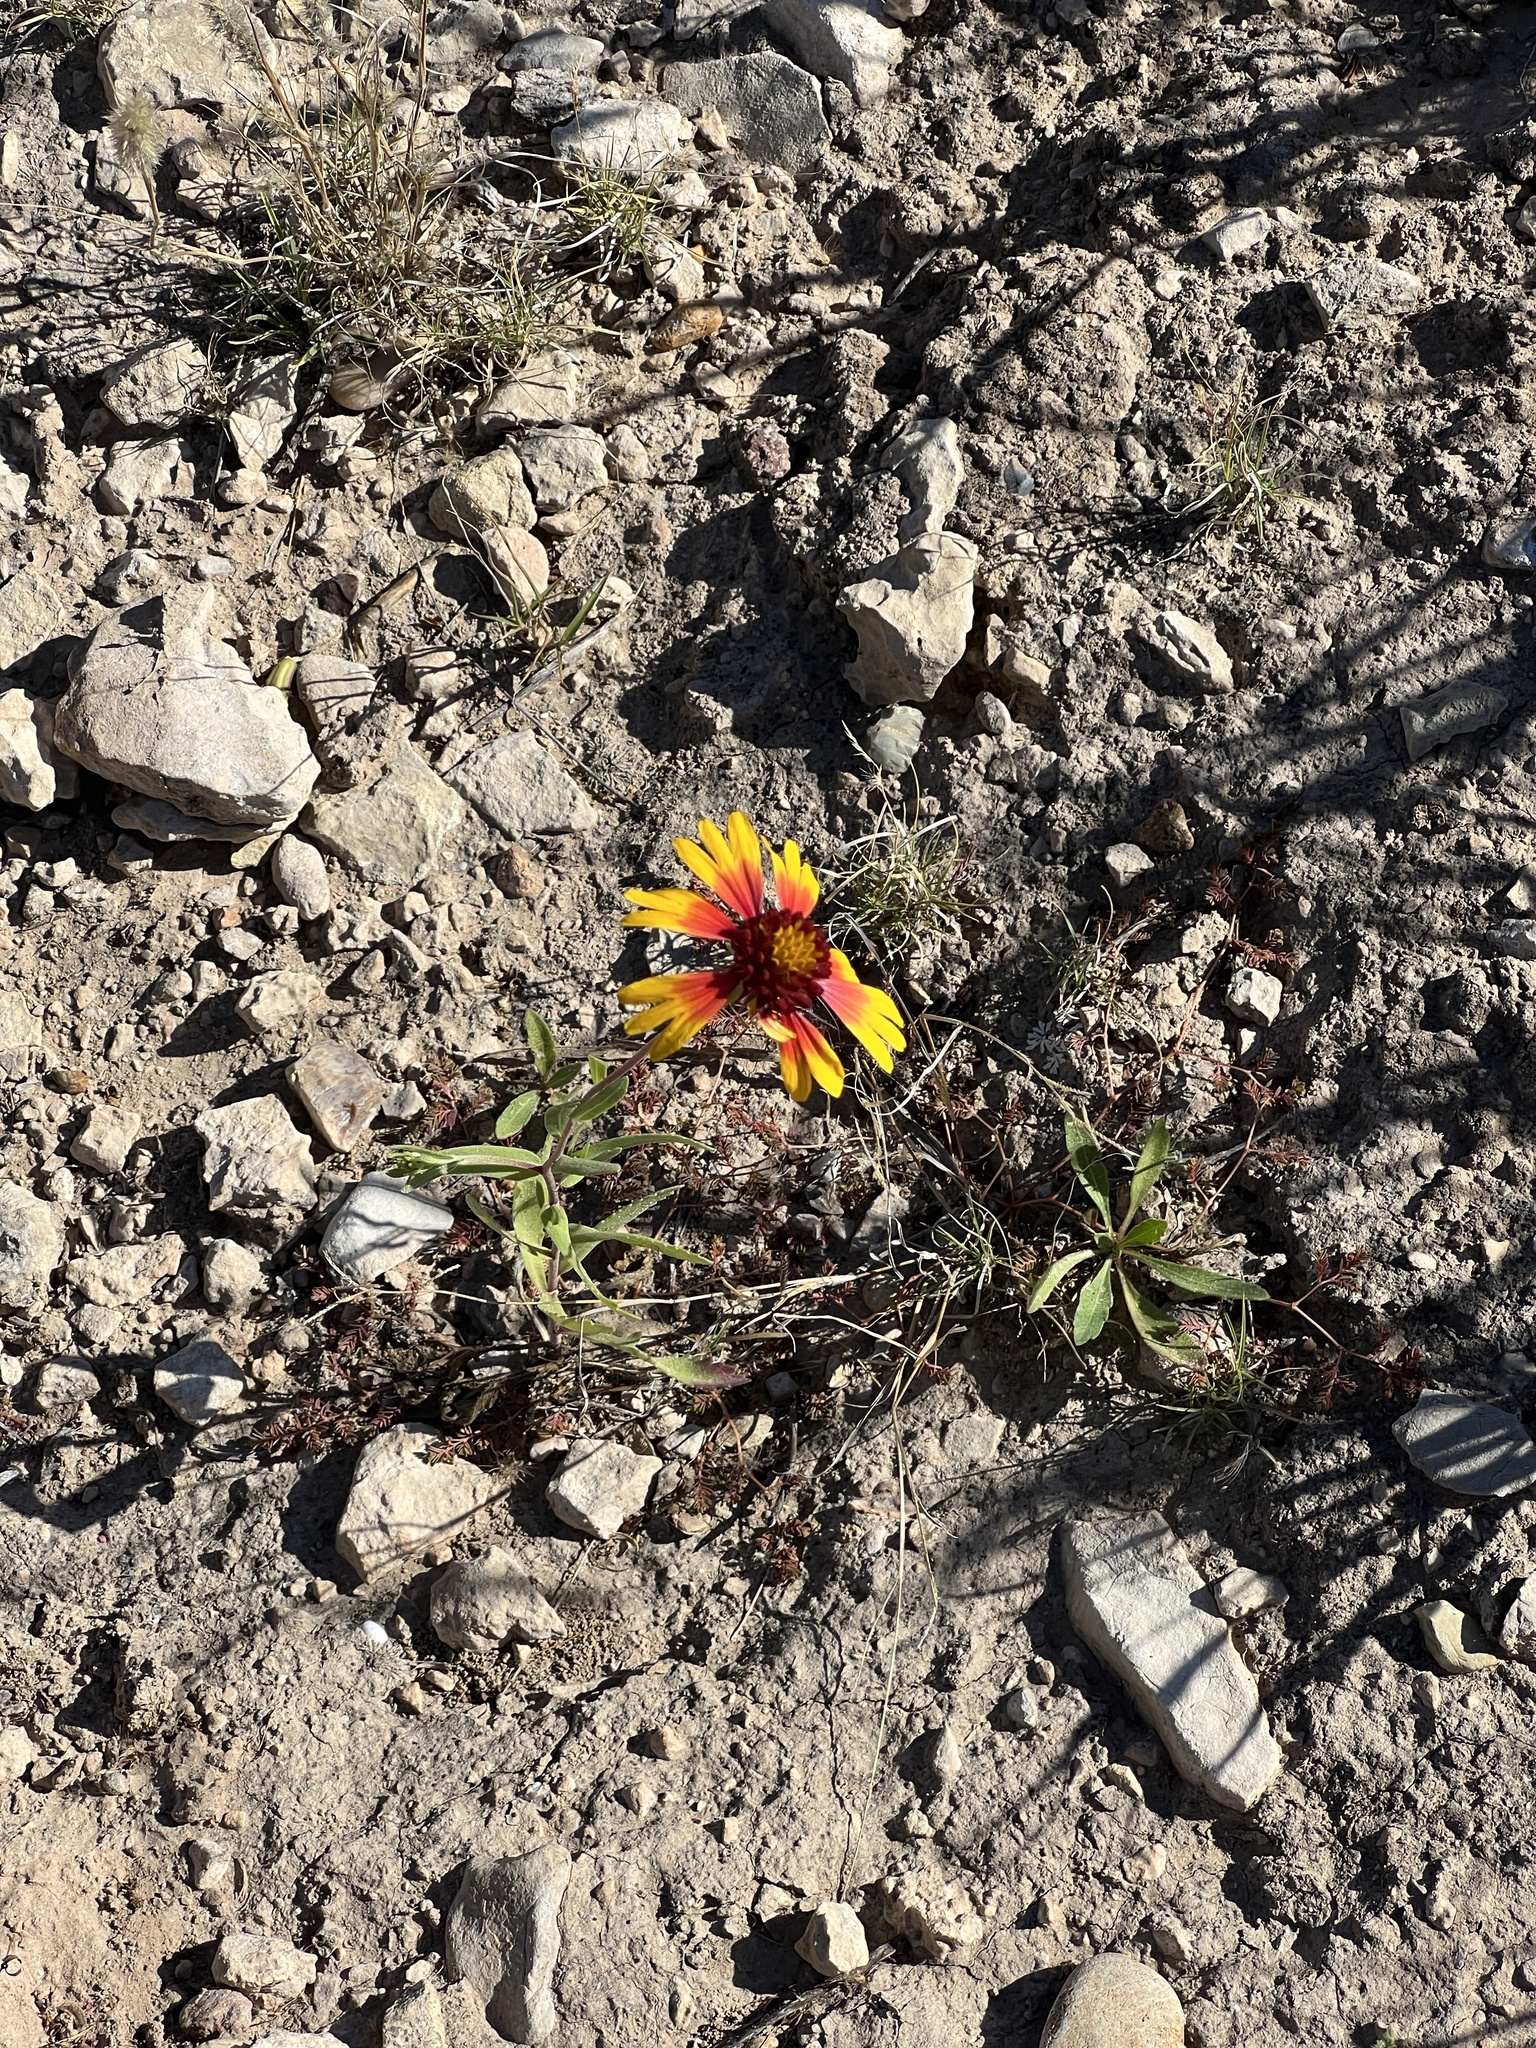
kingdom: Plantae
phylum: Tracheophyta
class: Magnoliopsida
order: Asterales
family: Asteraceae
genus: Gaillardia
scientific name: Gaillardia pulchella
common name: Firewheel
